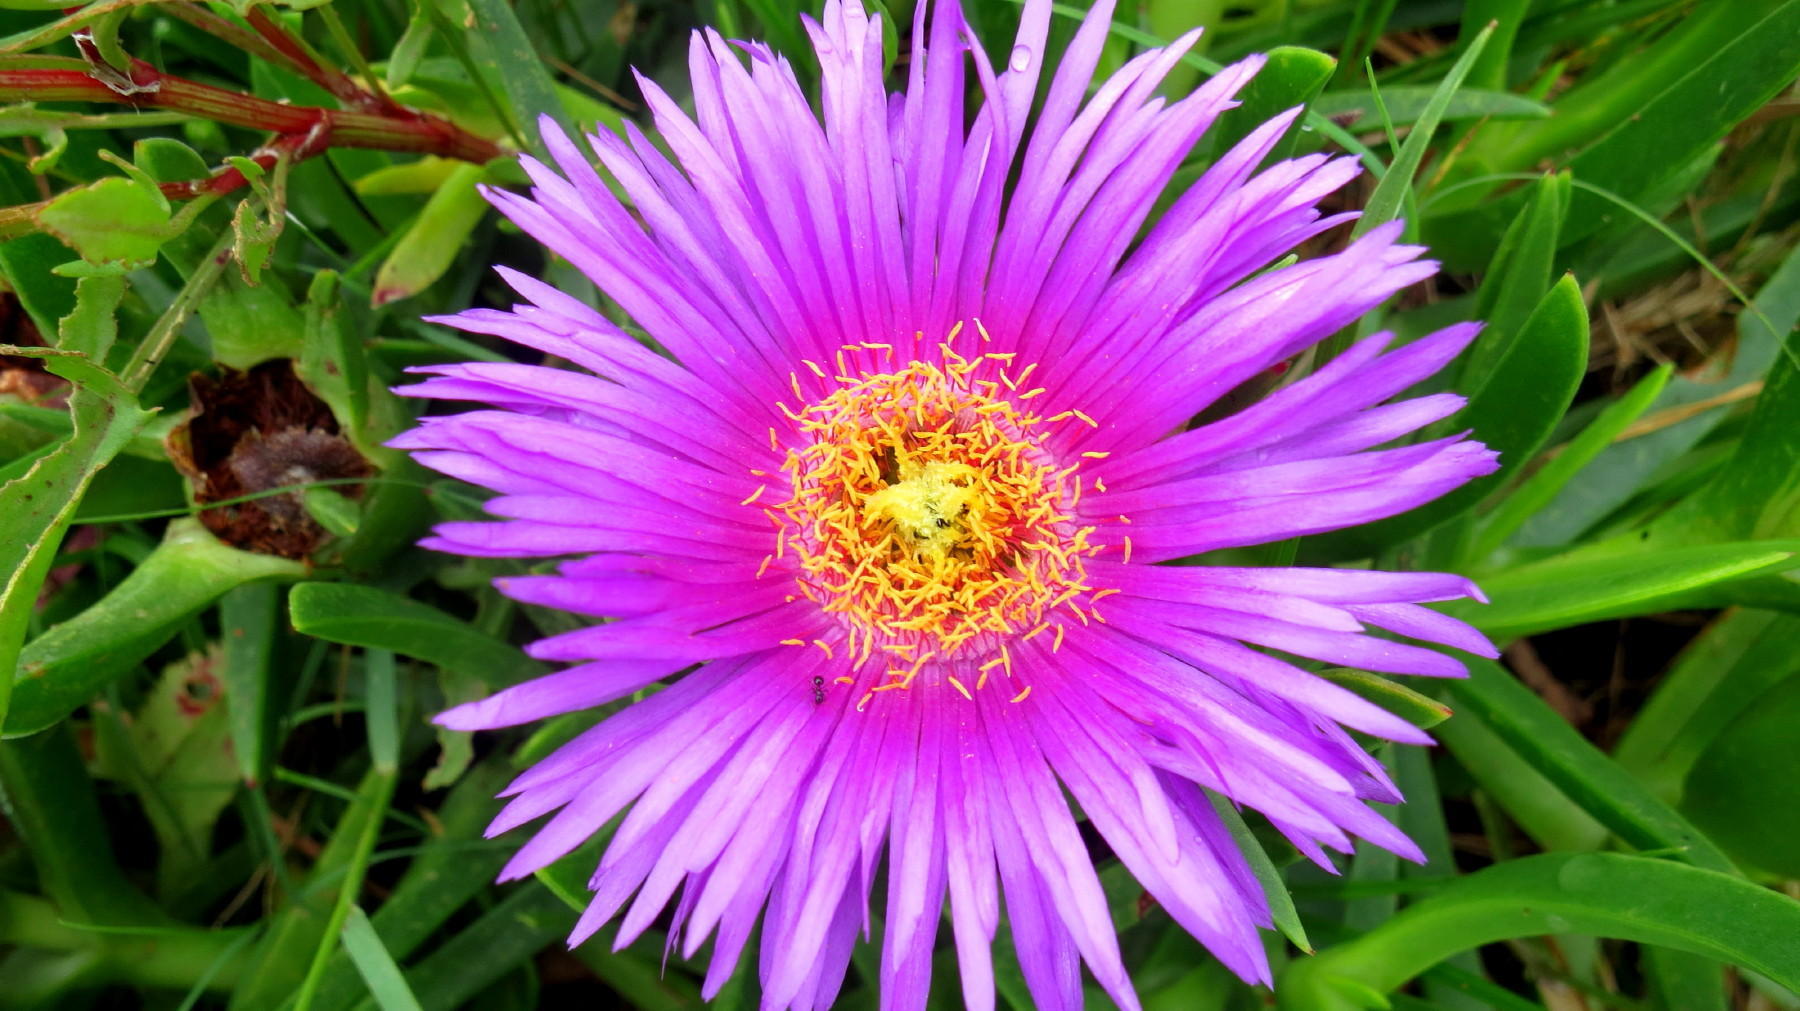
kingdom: Plantae
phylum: Tracheophyta
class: Magnoliopsida
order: Caryophyllales
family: Aizoaceae
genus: Carpobrotus
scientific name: Carpobrotus deliciosus
